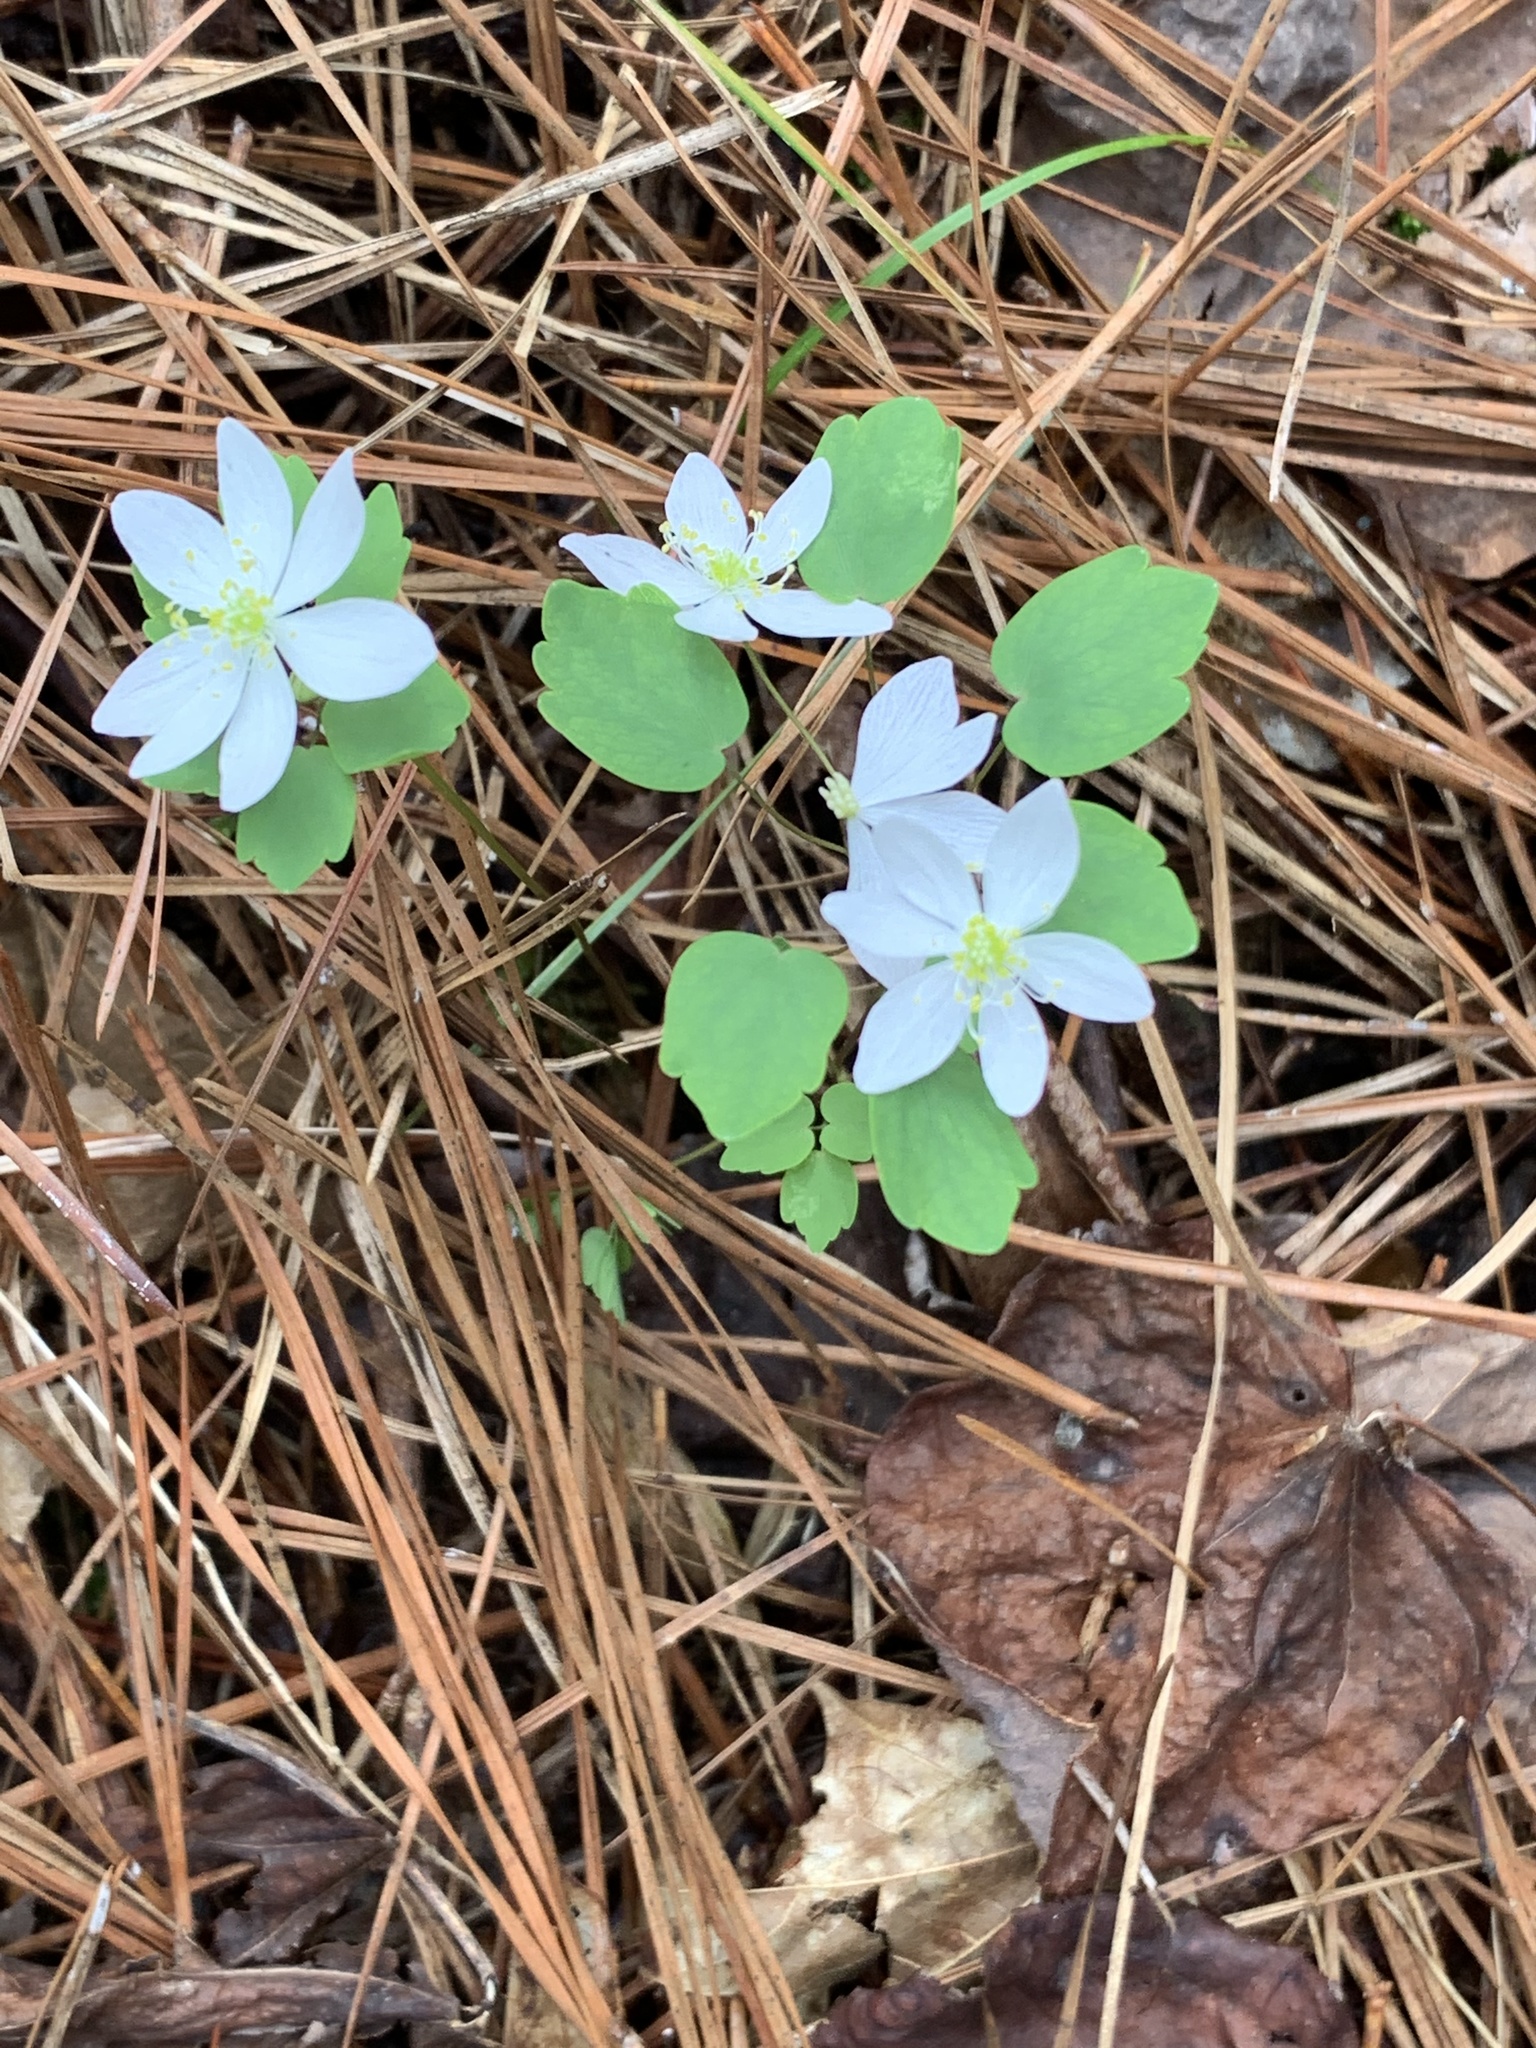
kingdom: Plantae
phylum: Tracheophyta
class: Magnoliopsida
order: Ranunculales
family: Ranunculaceae
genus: Thalictrum
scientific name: Thalictrum thalictroides
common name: Rue-anemone
